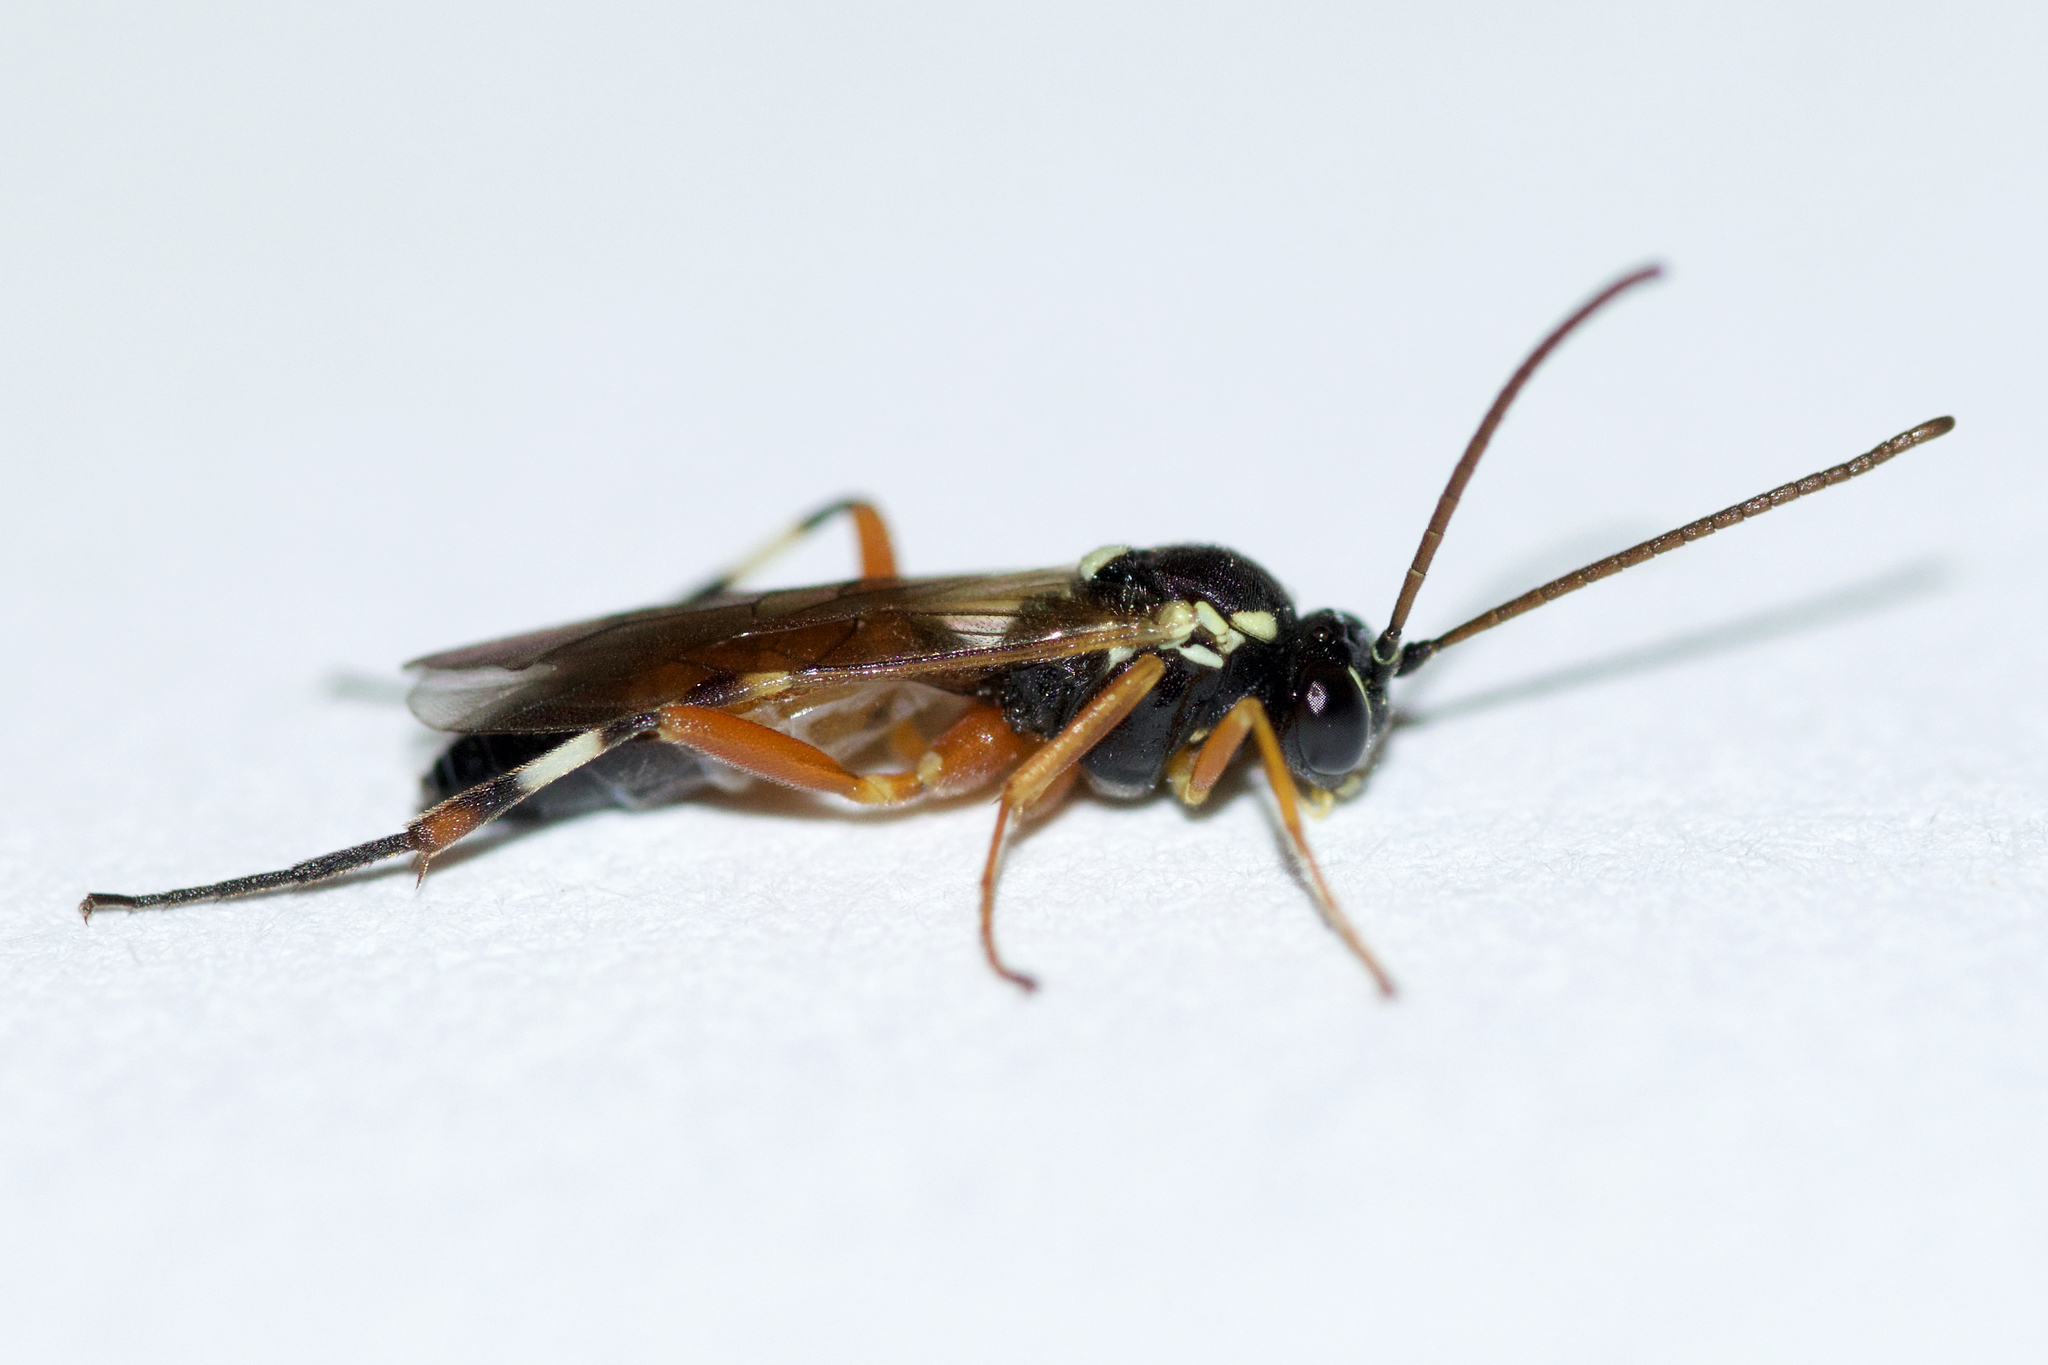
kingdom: Animalia
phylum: Arthropoda
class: Insecta
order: Hymenoptera
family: Ichneumonidae
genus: Diplazon
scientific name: Diplazon laetatorius
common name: Parasitoid wasp
